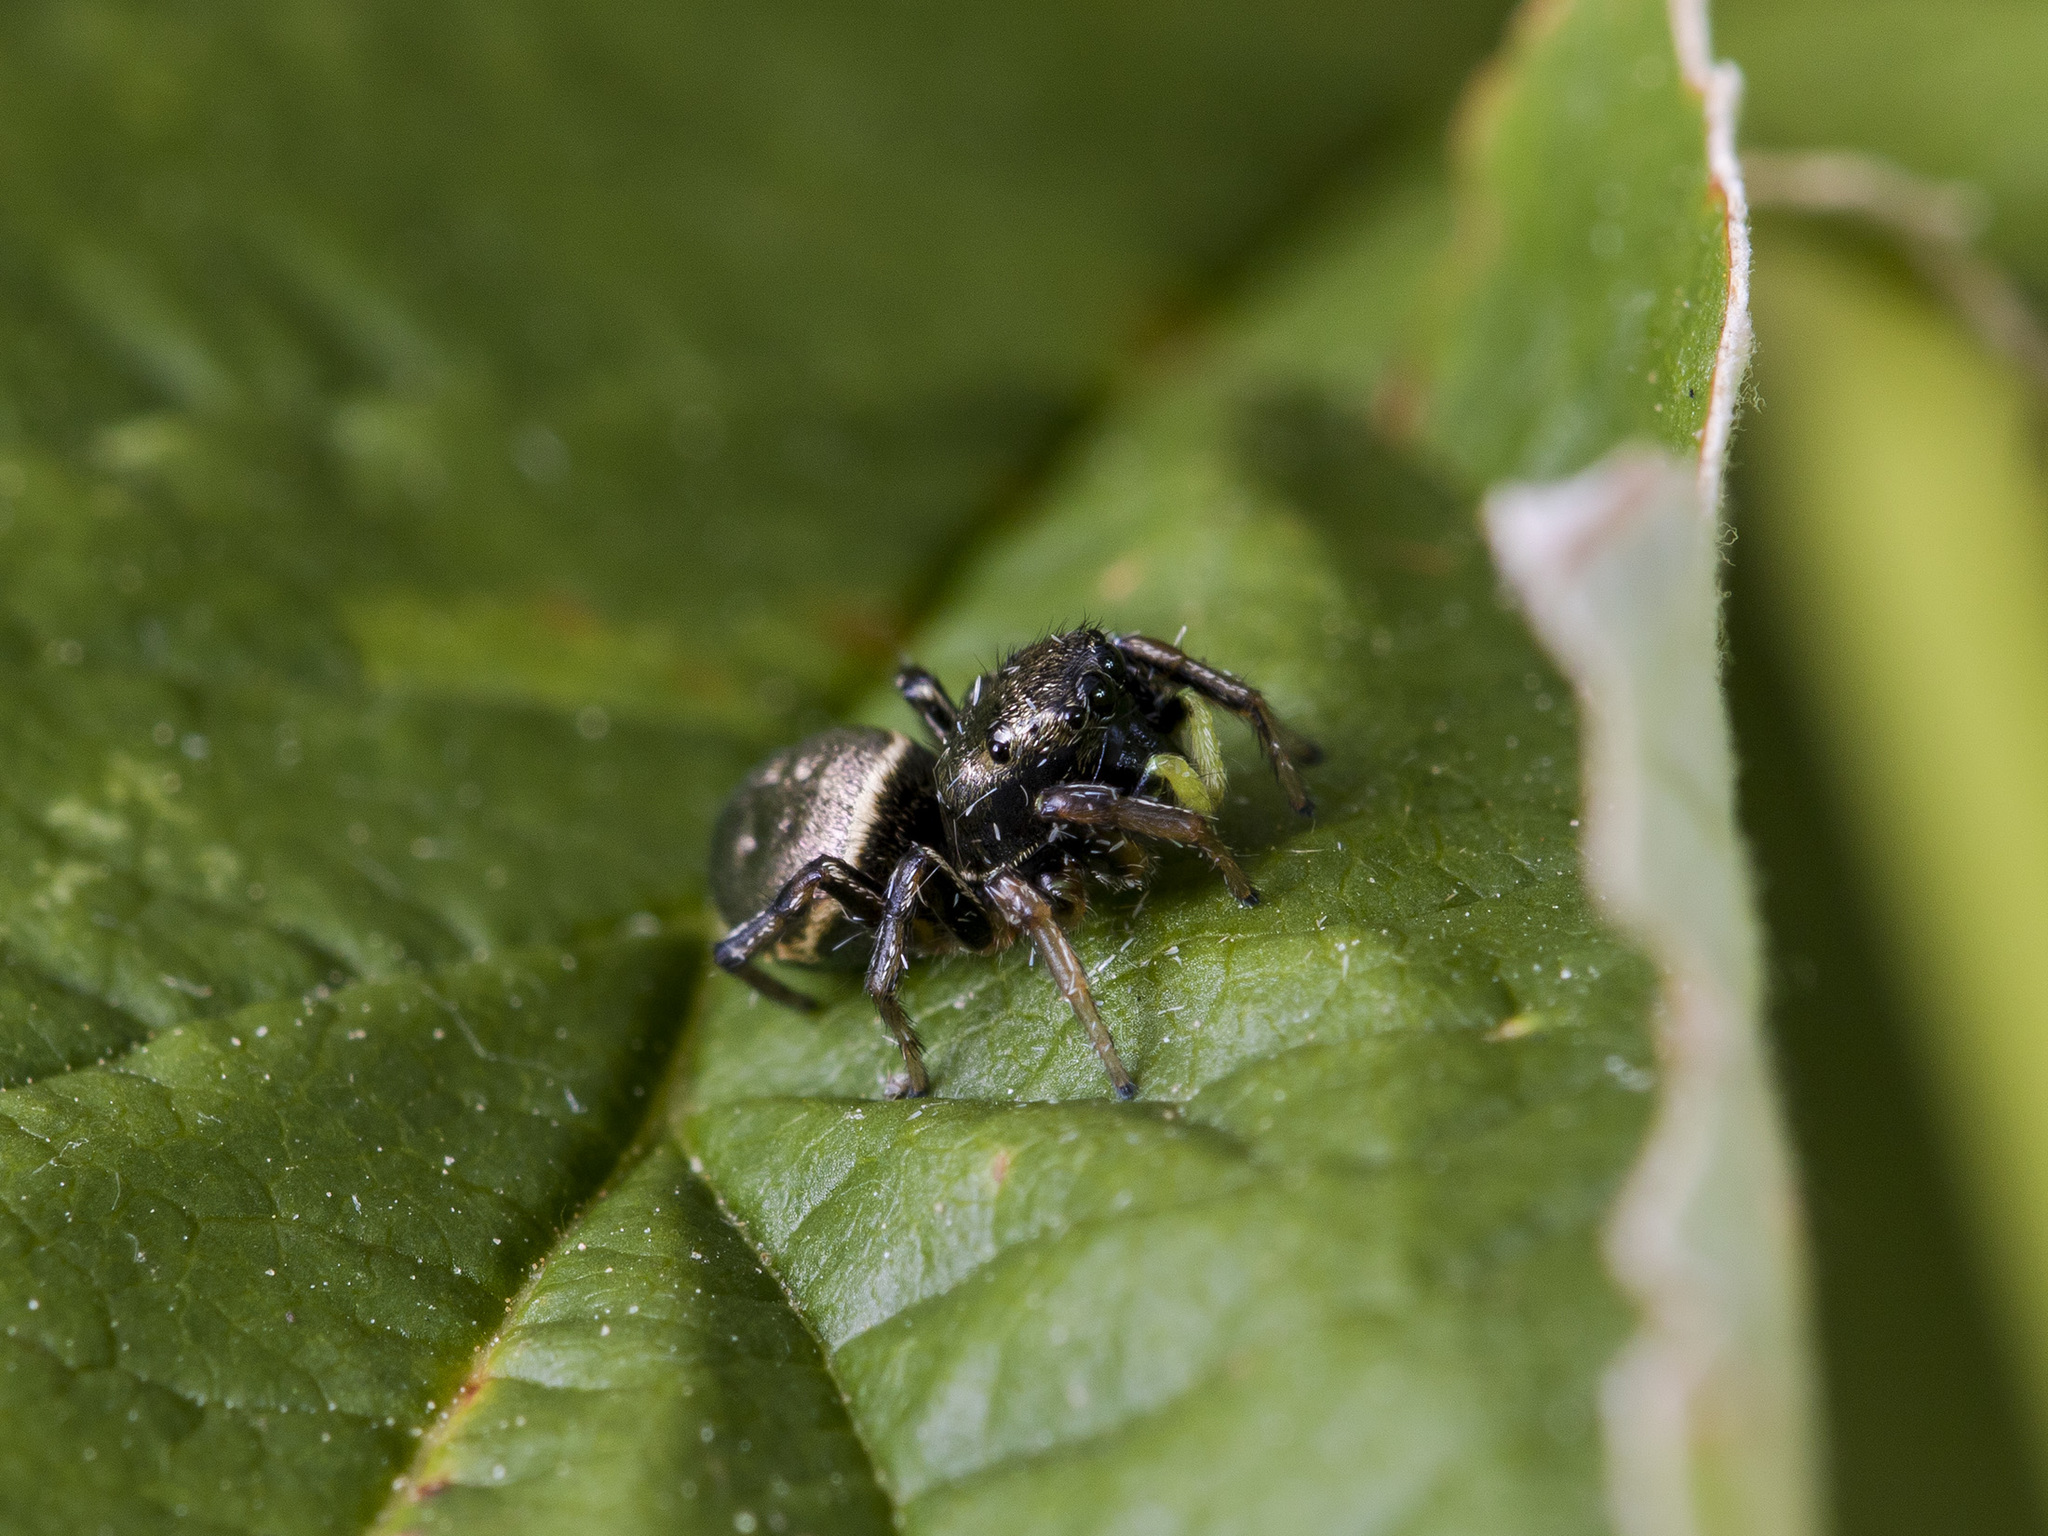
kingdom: Animalia
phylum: Arthropoda
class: Arachnida
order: Araneae
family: Salticidae
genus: Heliophanus
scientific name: Heliophanus auratus
